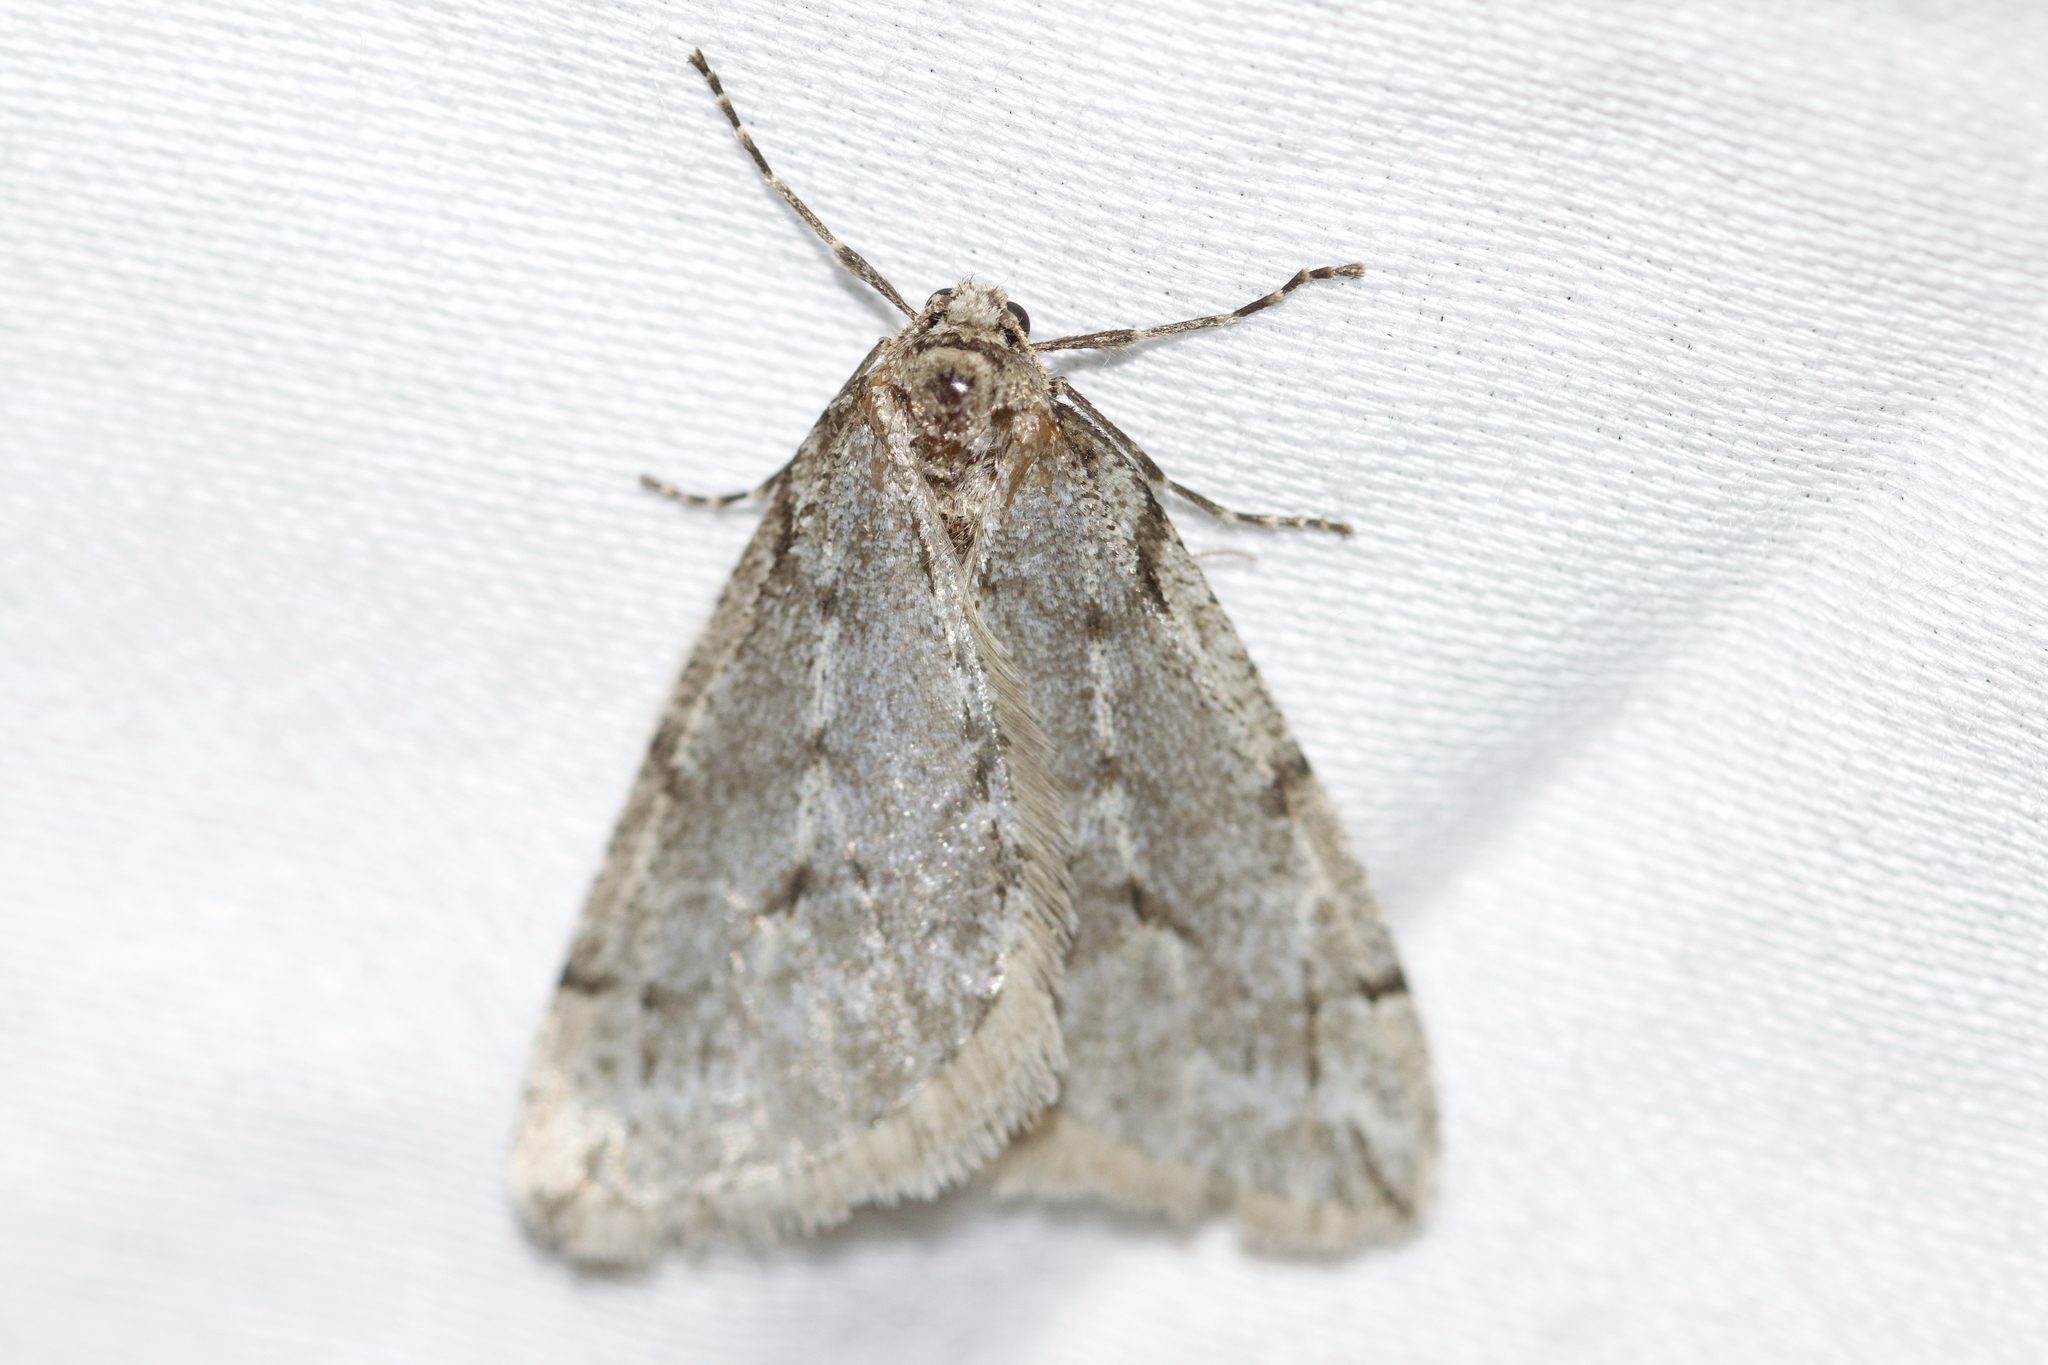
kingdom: Animalia
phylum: Arthropoda
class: Insecta
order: Lepidoptera
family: Geometridae
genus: Paleacrita
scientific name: Paleacrita vernata
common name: Spring cankerworm
